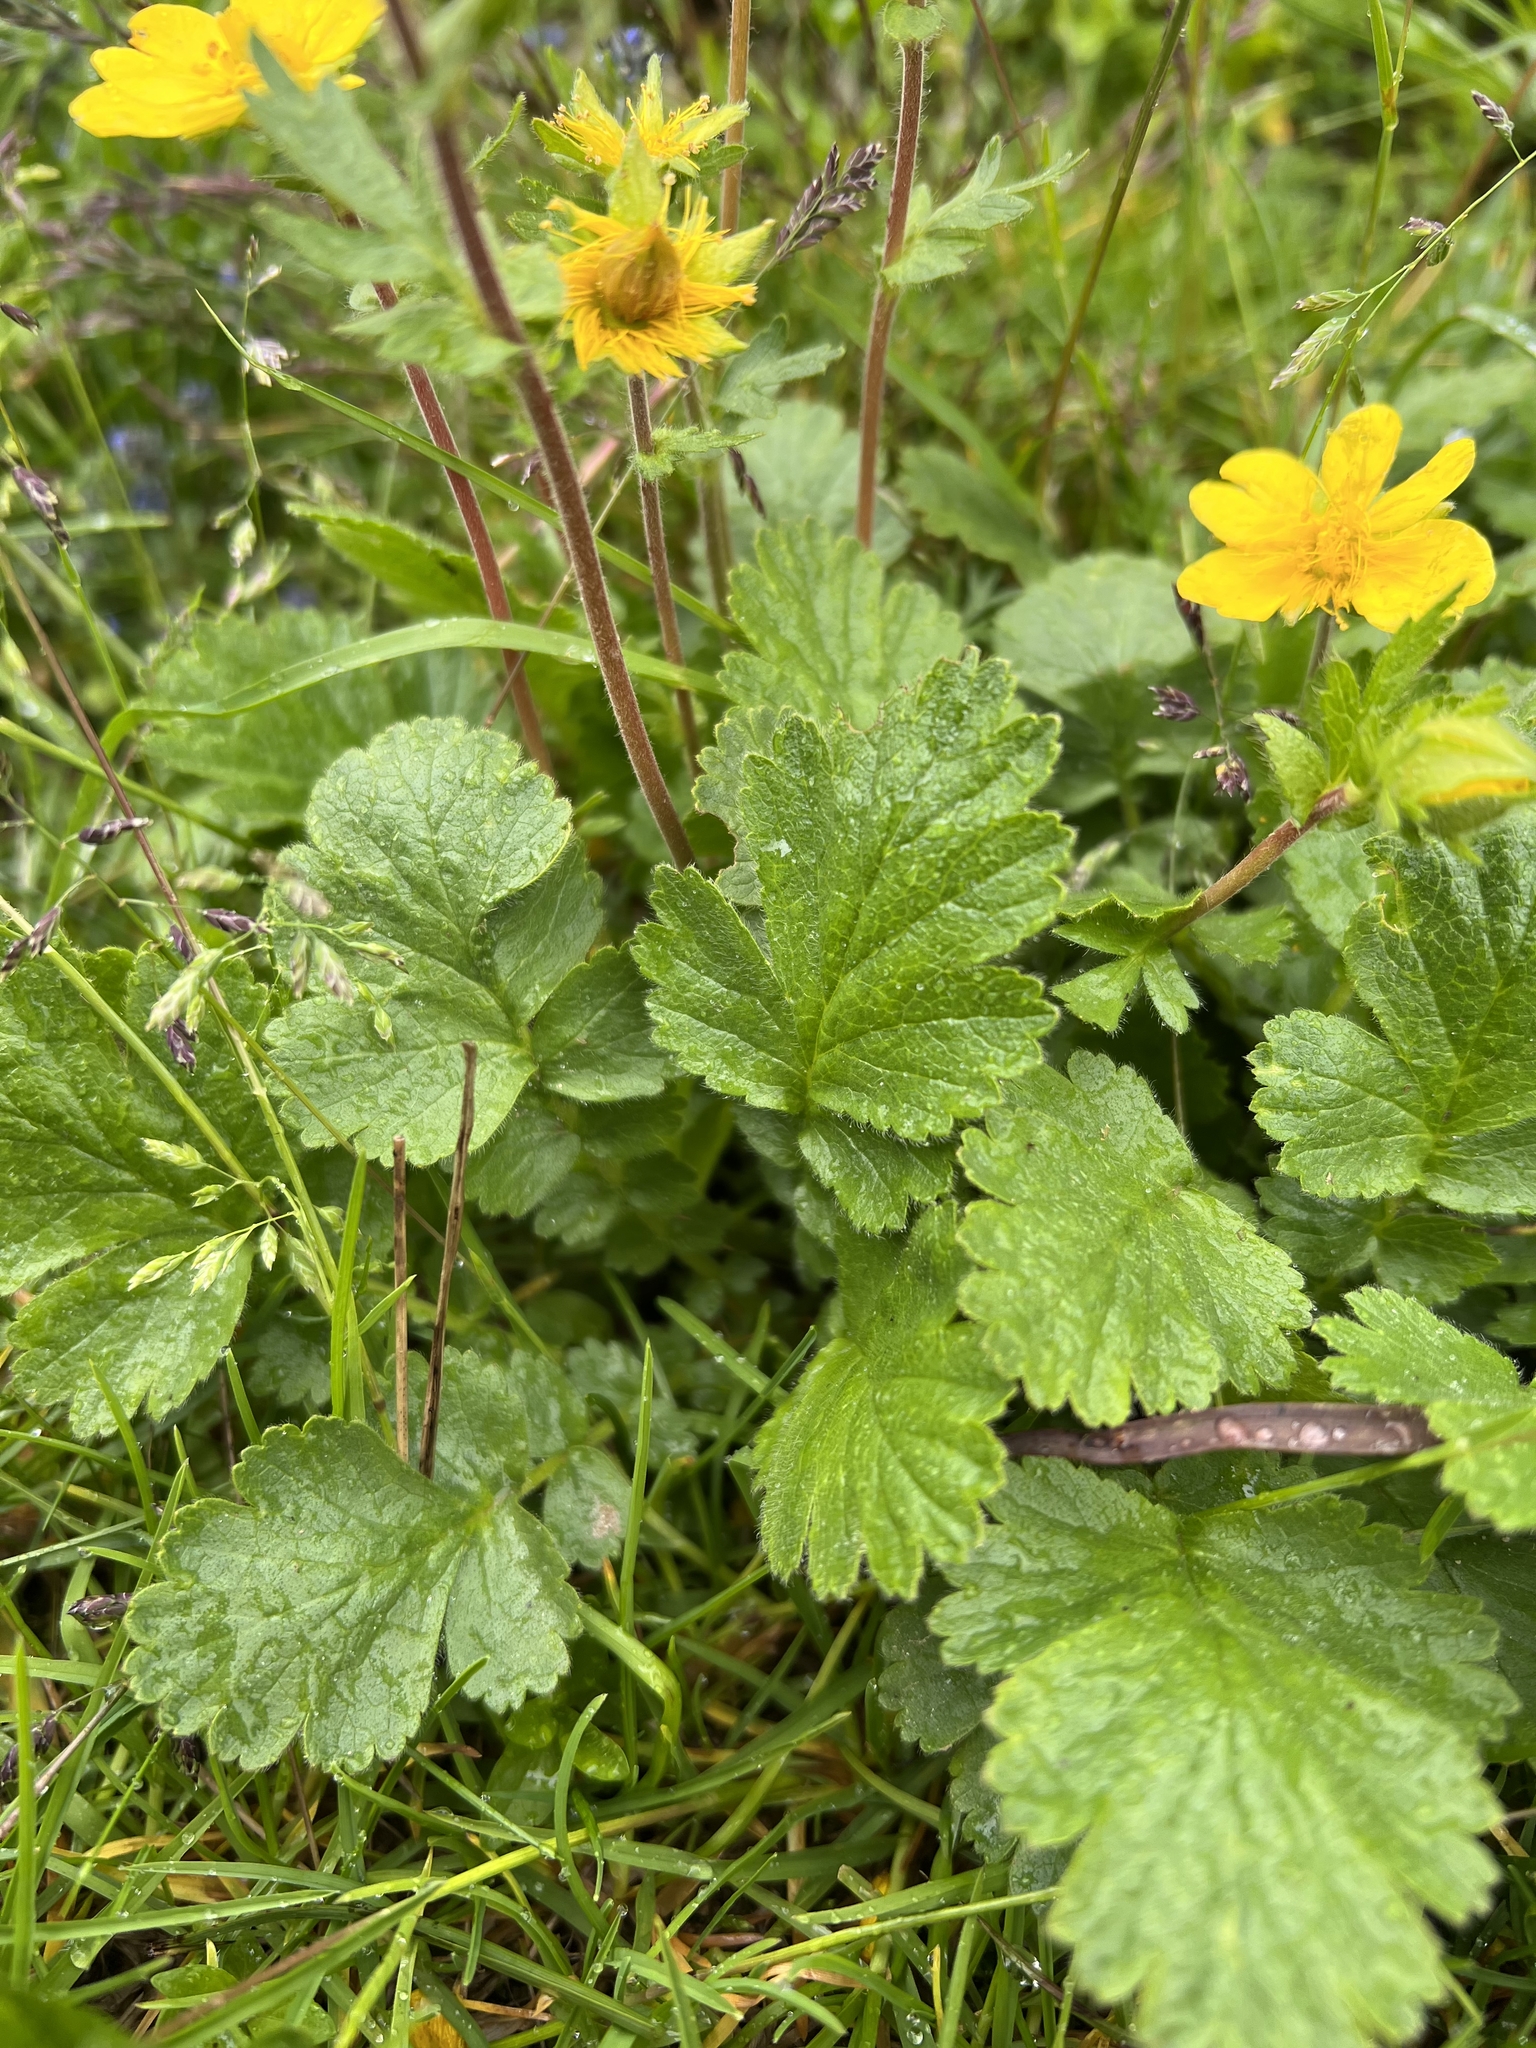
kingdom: Plantae
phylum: Tracheophyta
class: Magnoliopsida
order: Rosales
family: Rosaceae
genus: Geum
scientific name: Geum montanum
